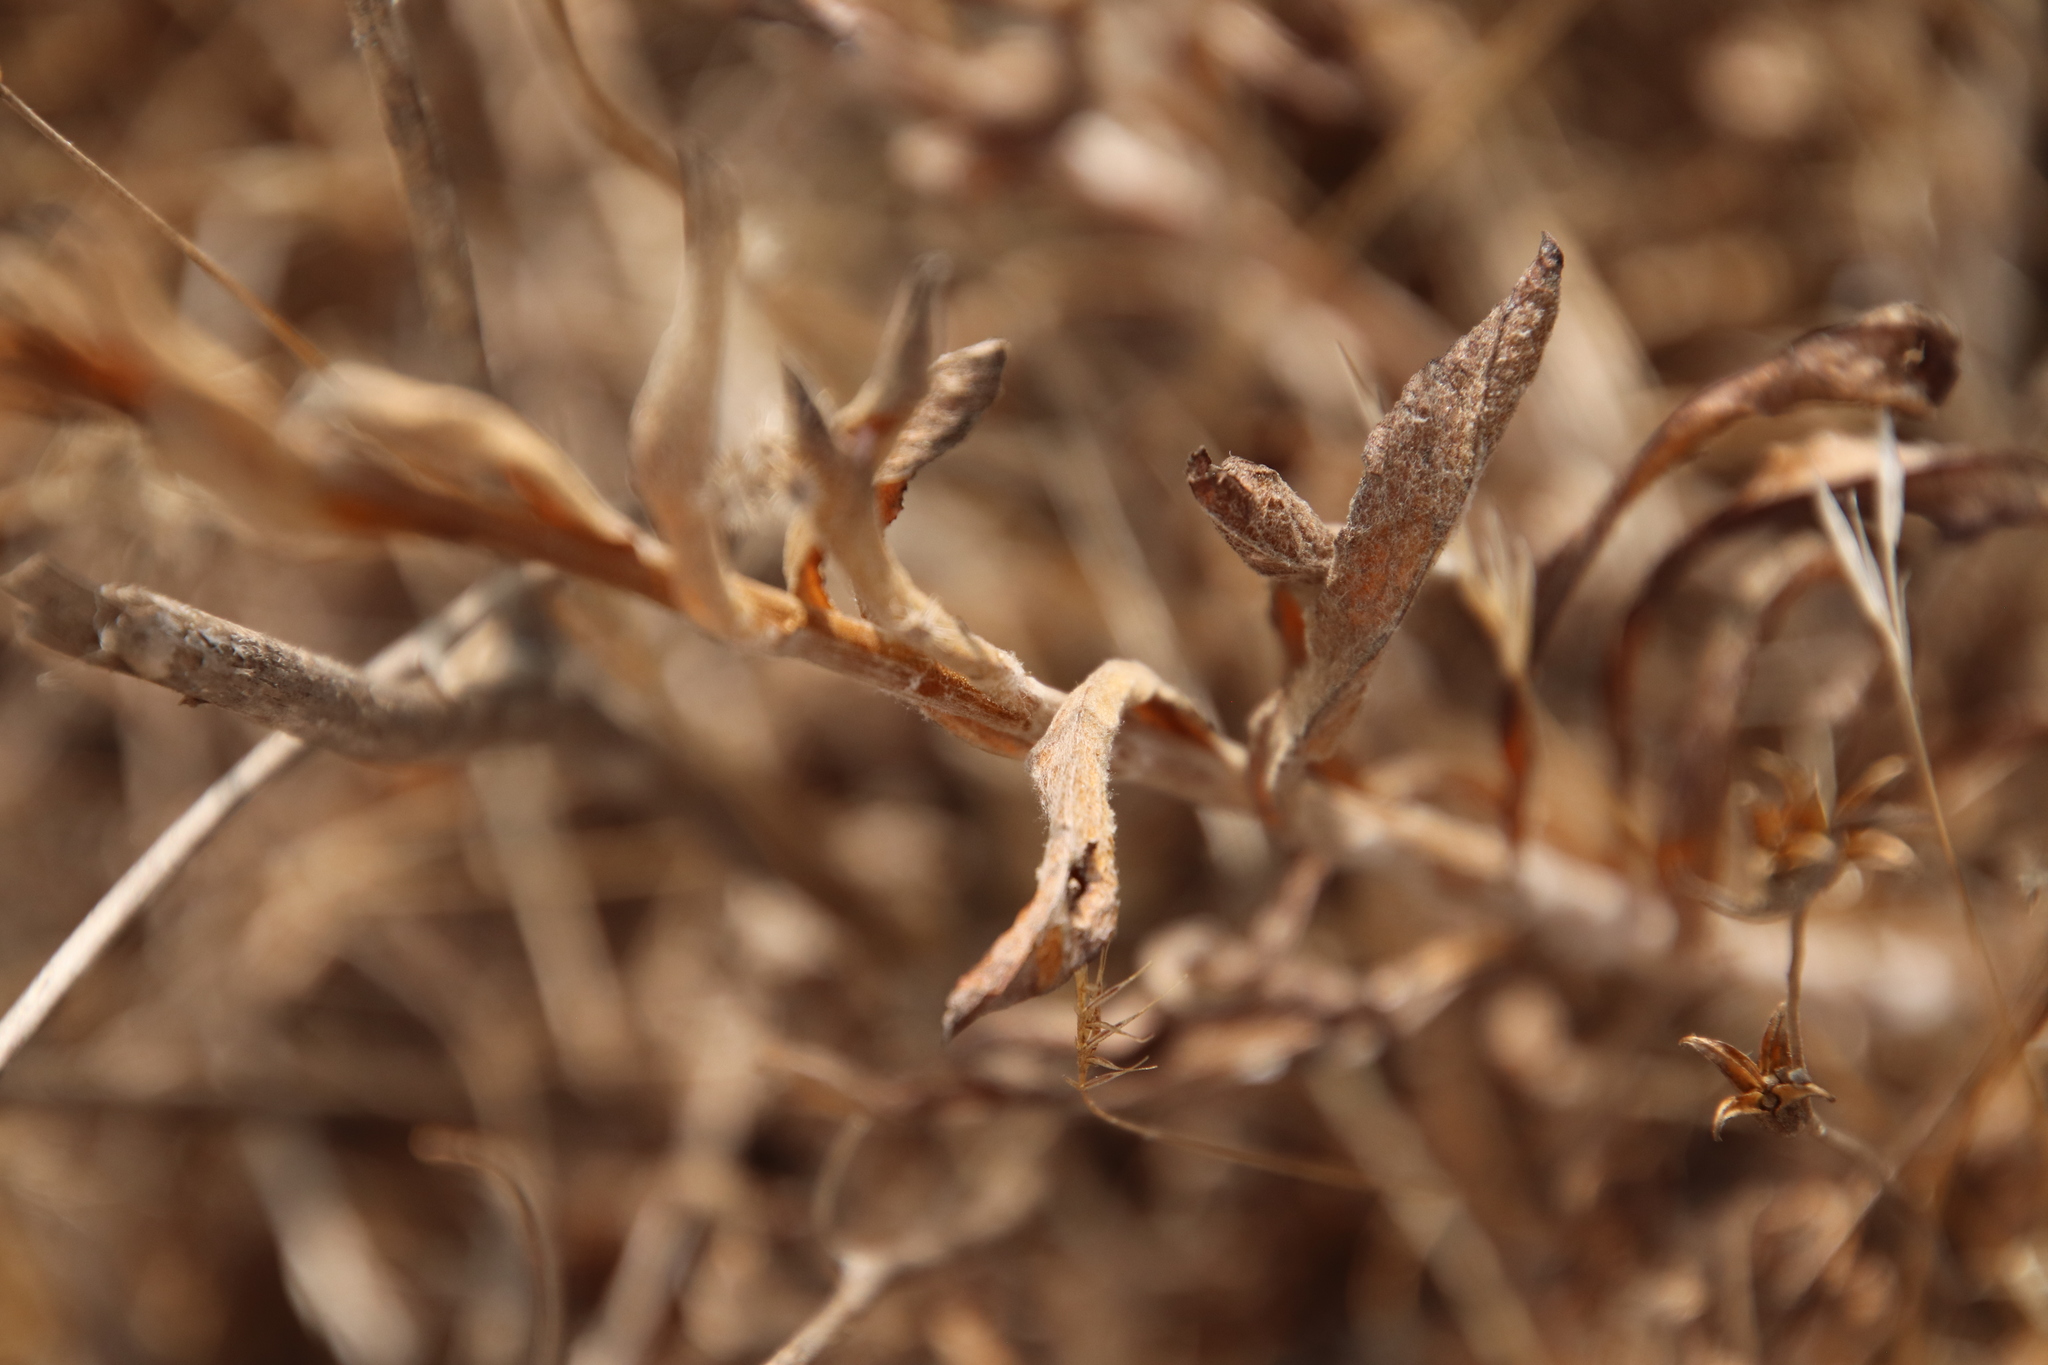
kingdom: Plantae
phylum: Tracheophyta
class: Magnoliopsida
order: Asterales
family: Asteraceae
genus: Corethrogyne
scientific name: Corethrogyne filaginifolia
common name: Sand-aster
